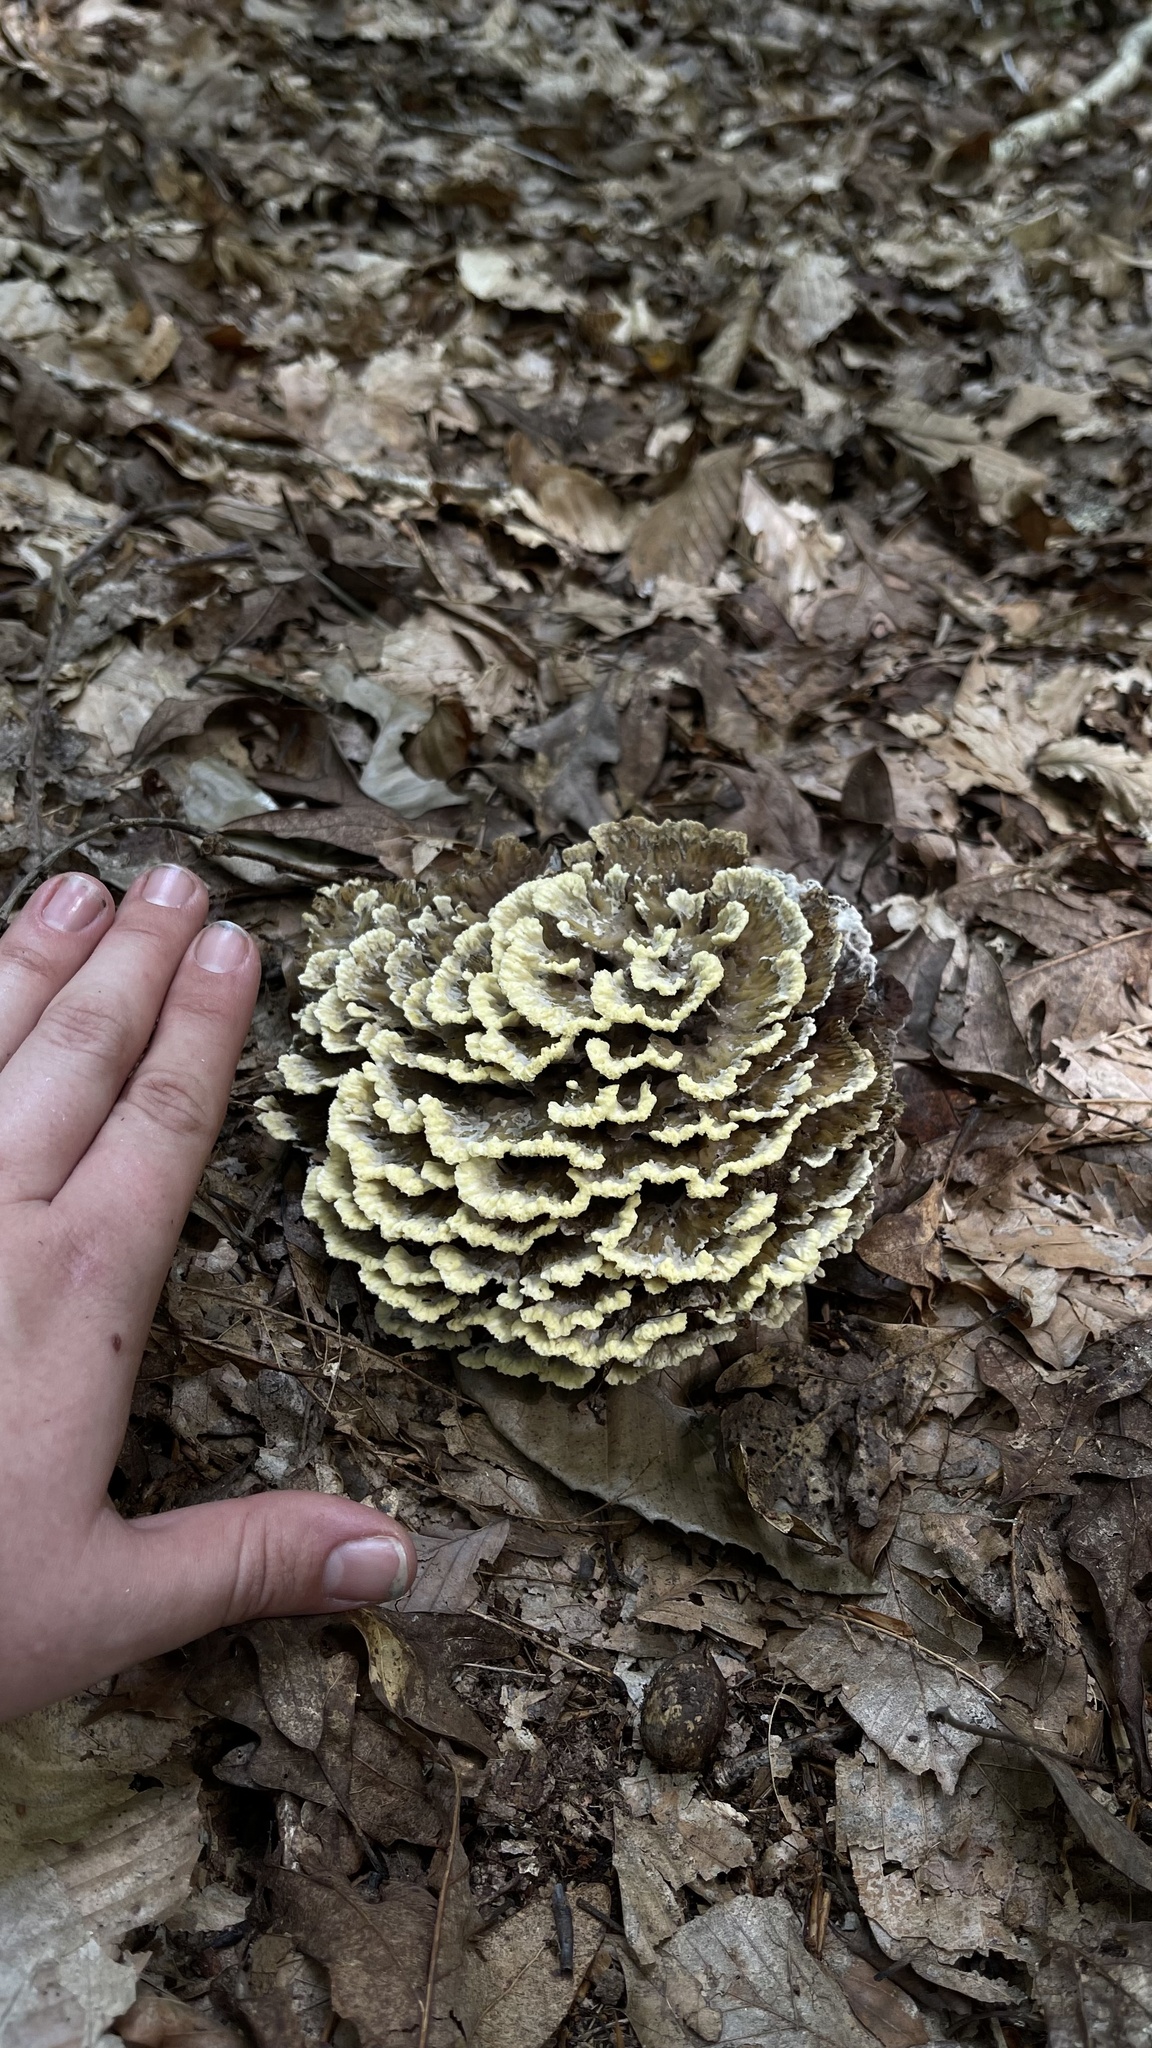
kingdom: Fungi
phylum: Basidiomycota
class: Agaricomycetes
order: Thelephorales
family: Thelephoraceae
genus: Thelephora
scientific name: Thelephora vialis
